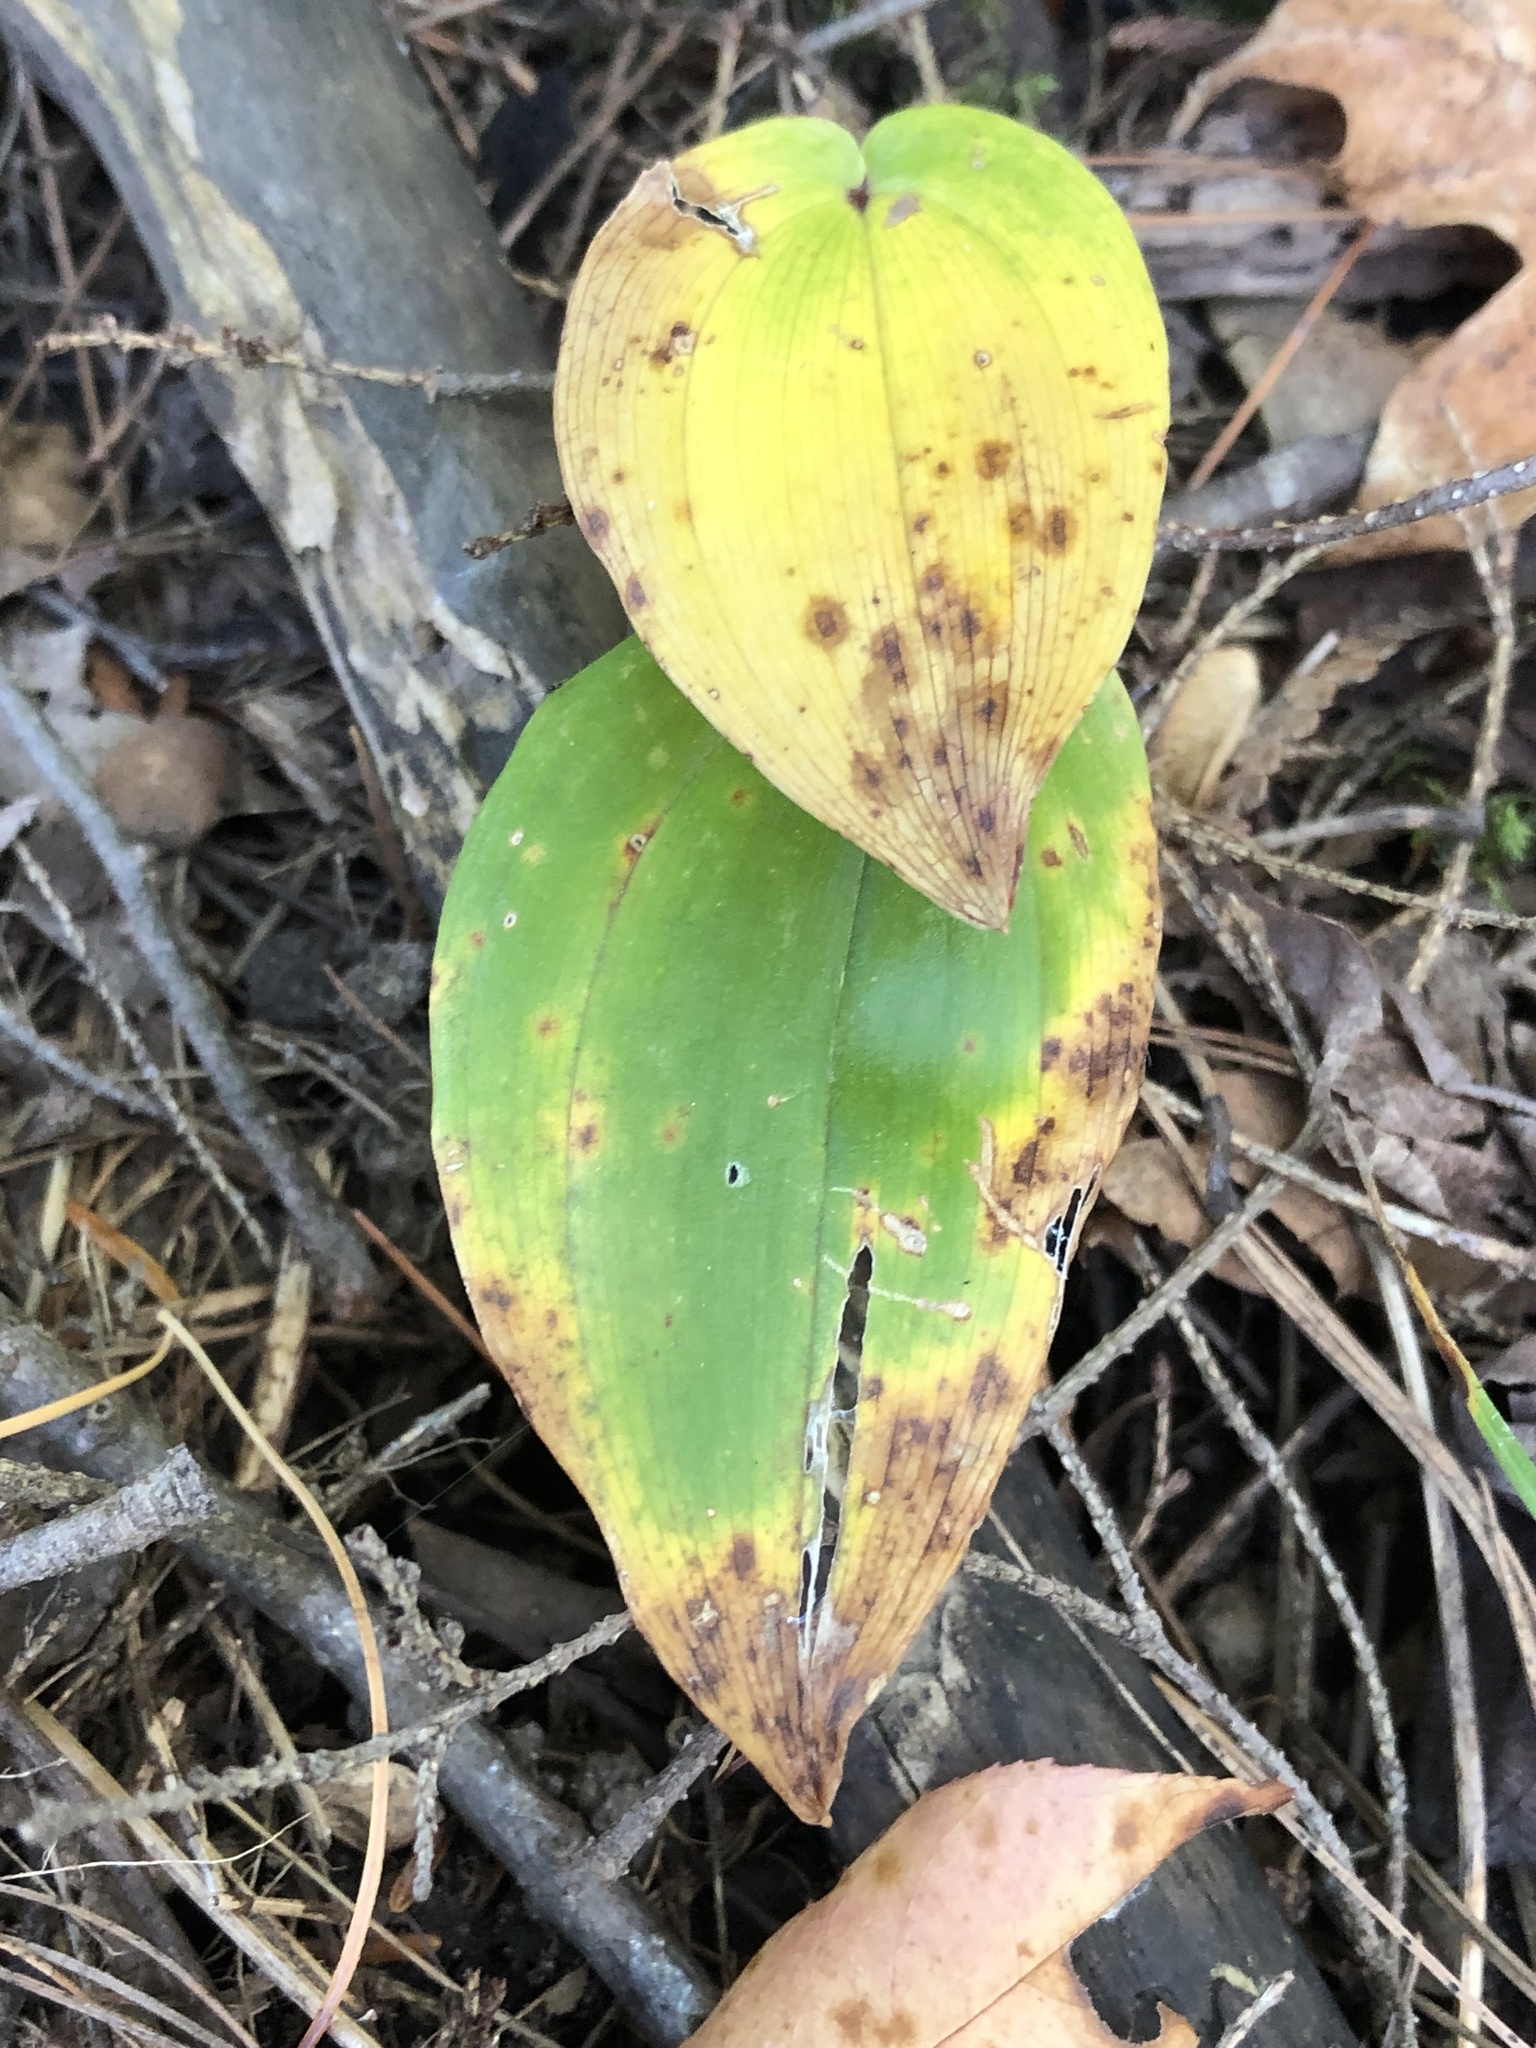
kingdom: Plantae
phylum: Tracheophyta
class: Liliopsida
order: Asparagales
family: Asparagaceae
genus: Maianthemum
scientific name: Maianthemum canadense
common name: False lily-of-the-valley
